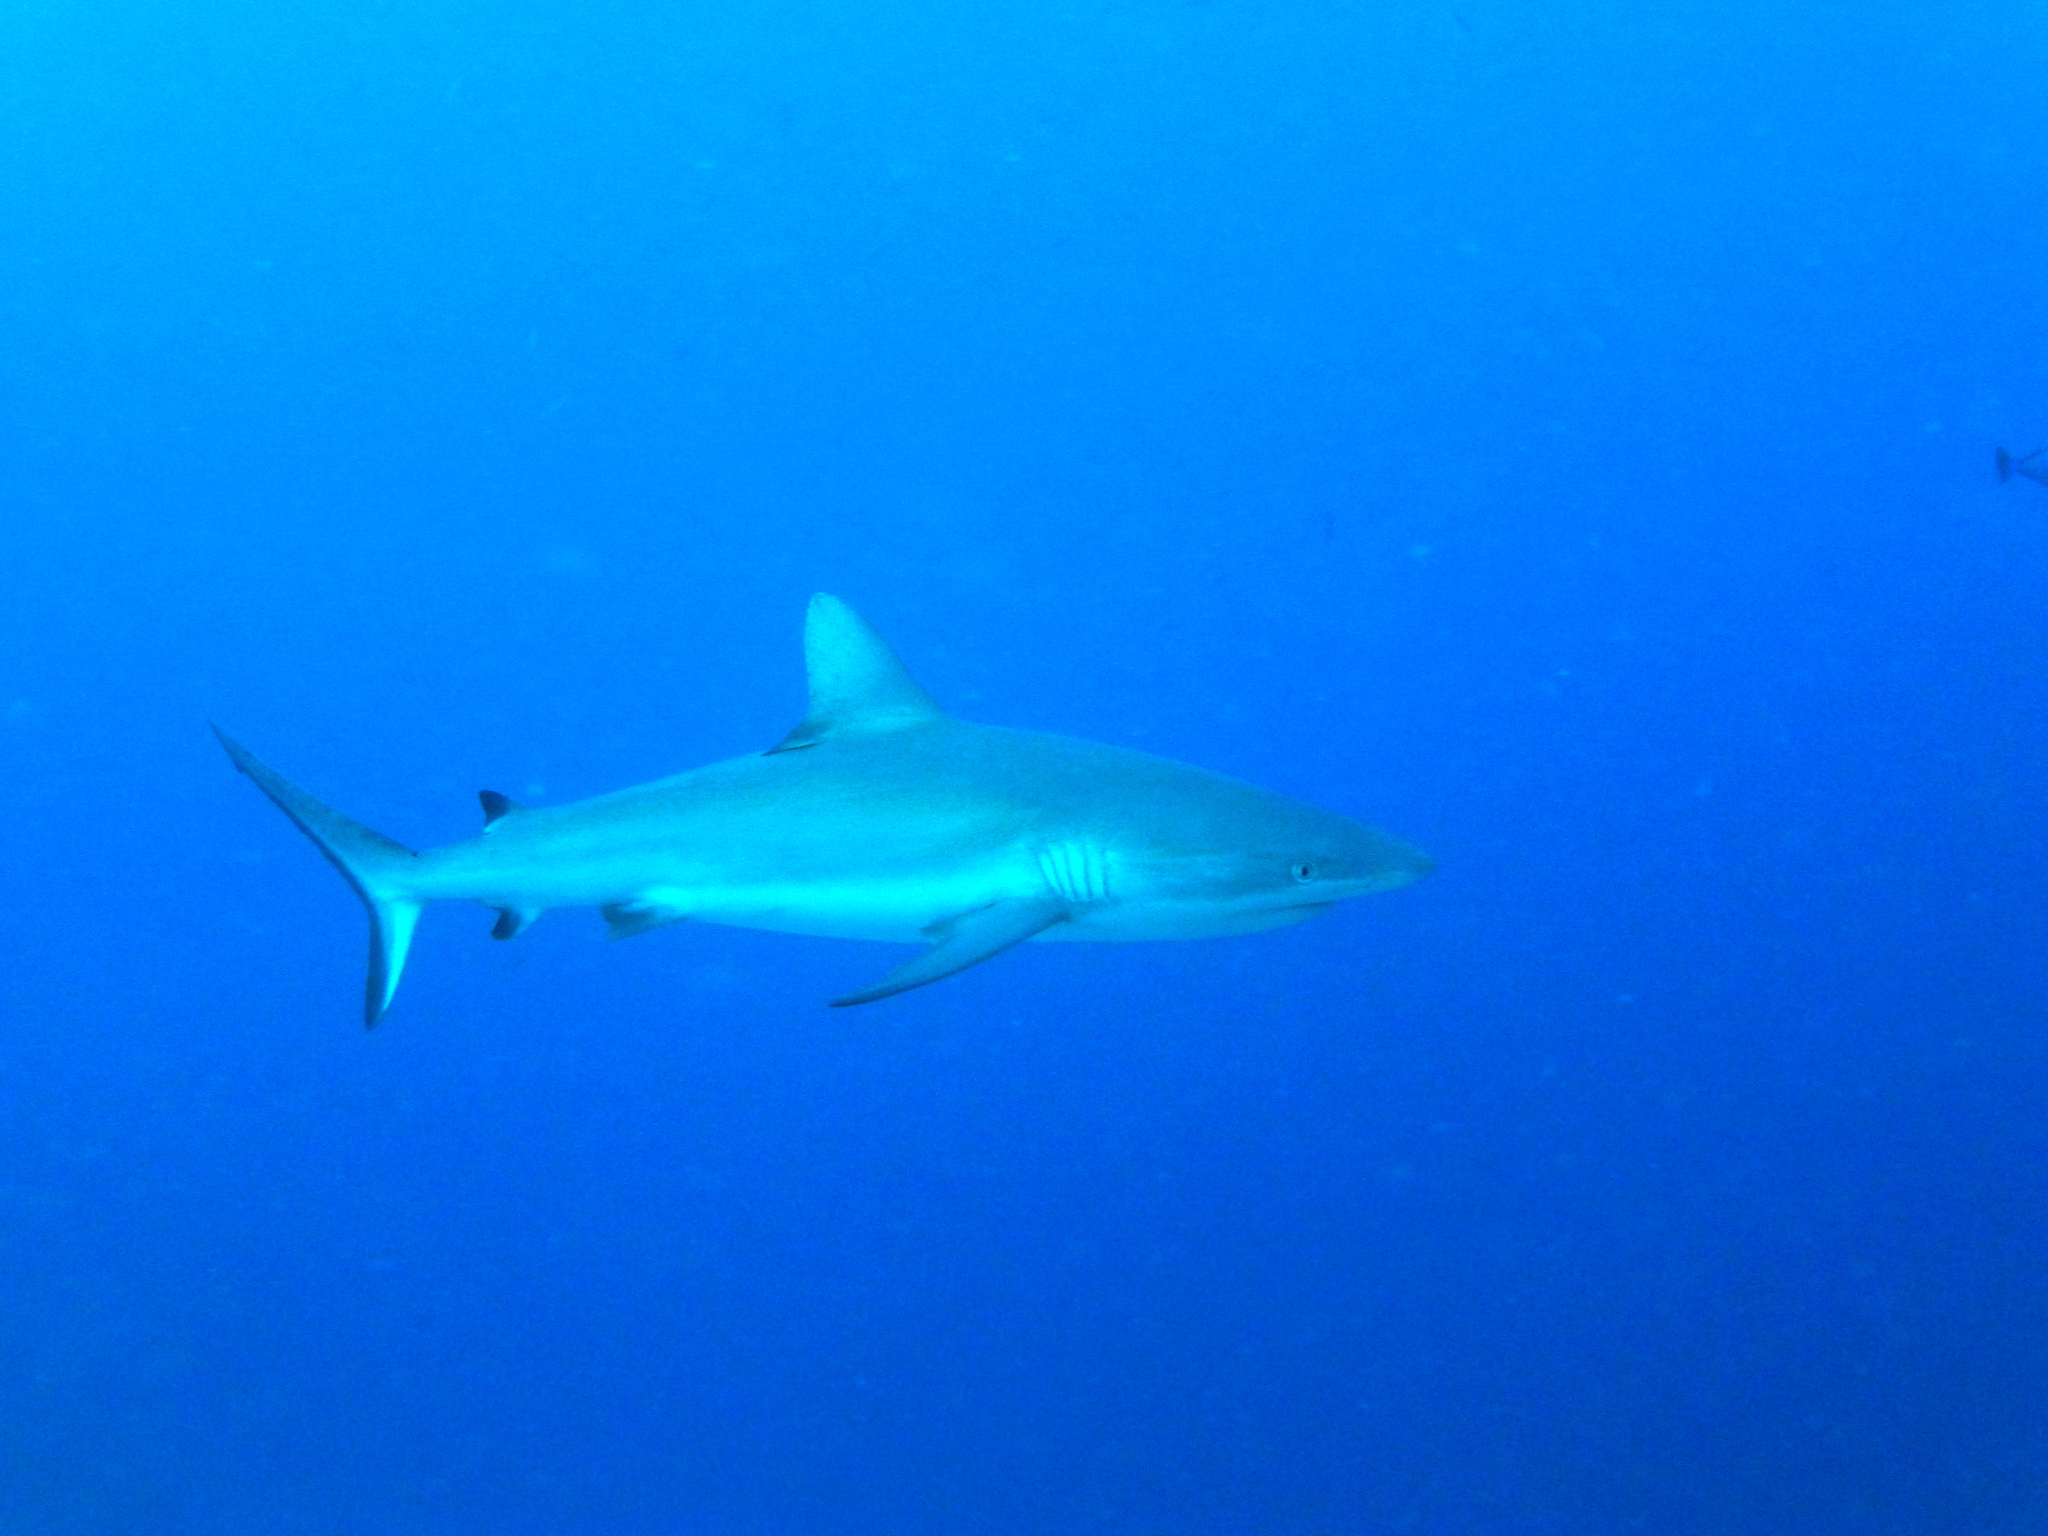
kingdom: Animalia
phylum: Chordata
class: Elasmobranchii
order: Carcharhiniformes
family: Carcharhinidae
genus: Carcharhinus
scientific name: Carcharhinus amblyrhynchos
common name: Grey reef shark
